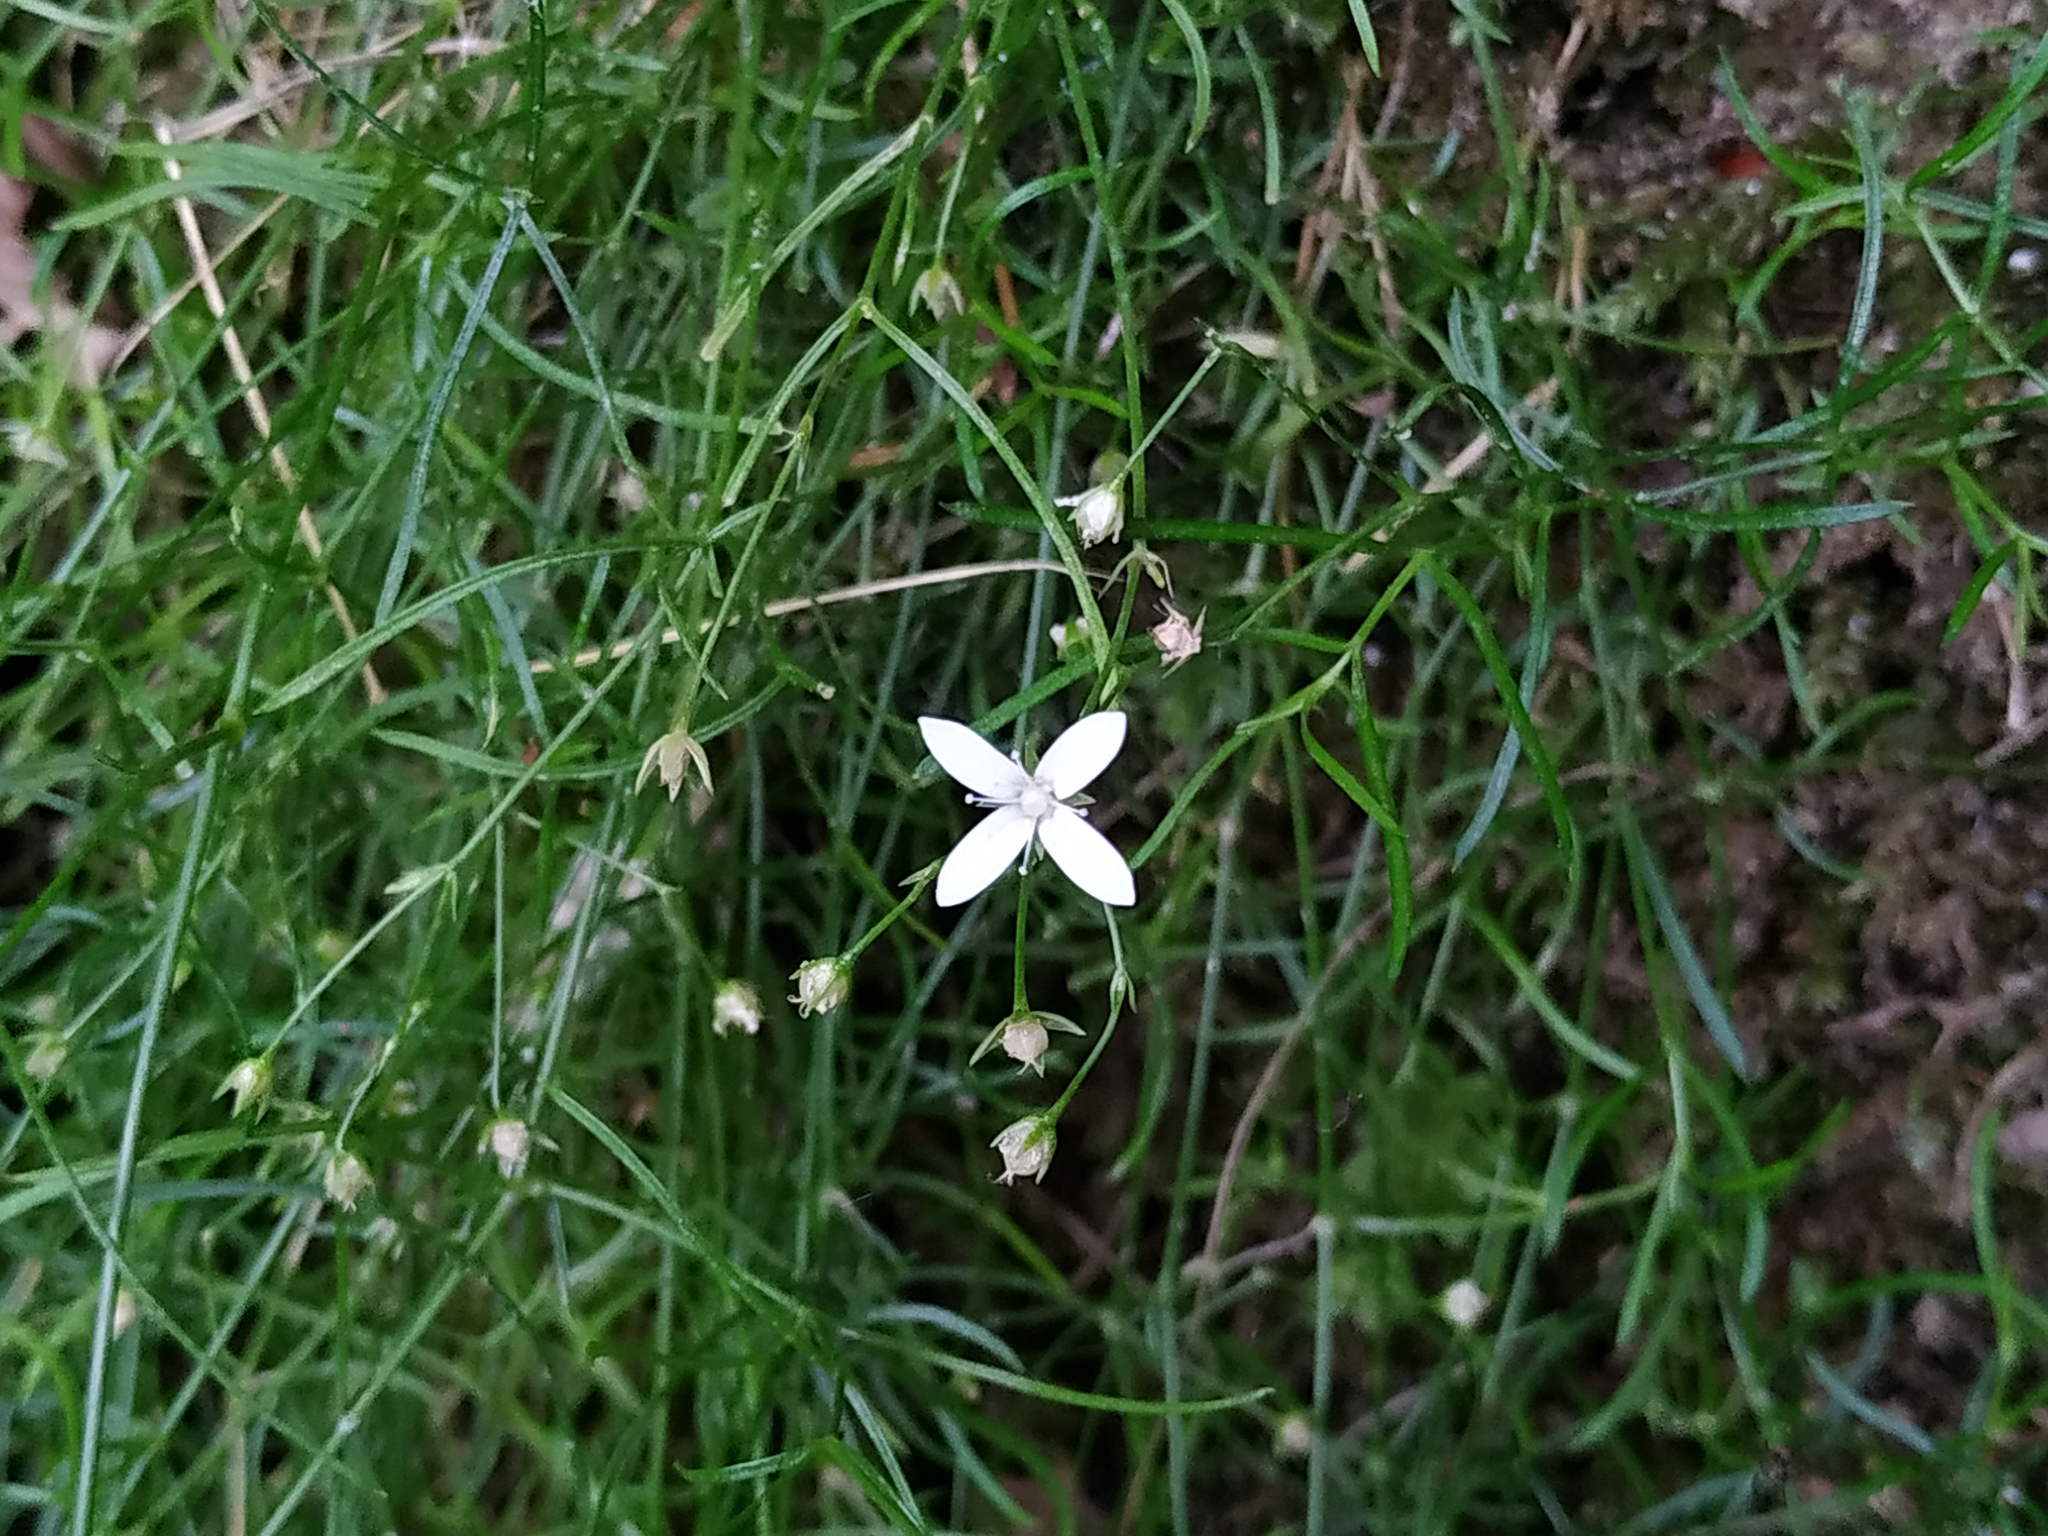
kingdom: Plantae
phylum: Tracheophyta
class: Magnoliopsida
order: Caryophyllales
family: Caryophyllaceae
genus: Moehringia
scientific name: Moehringia muscosa
